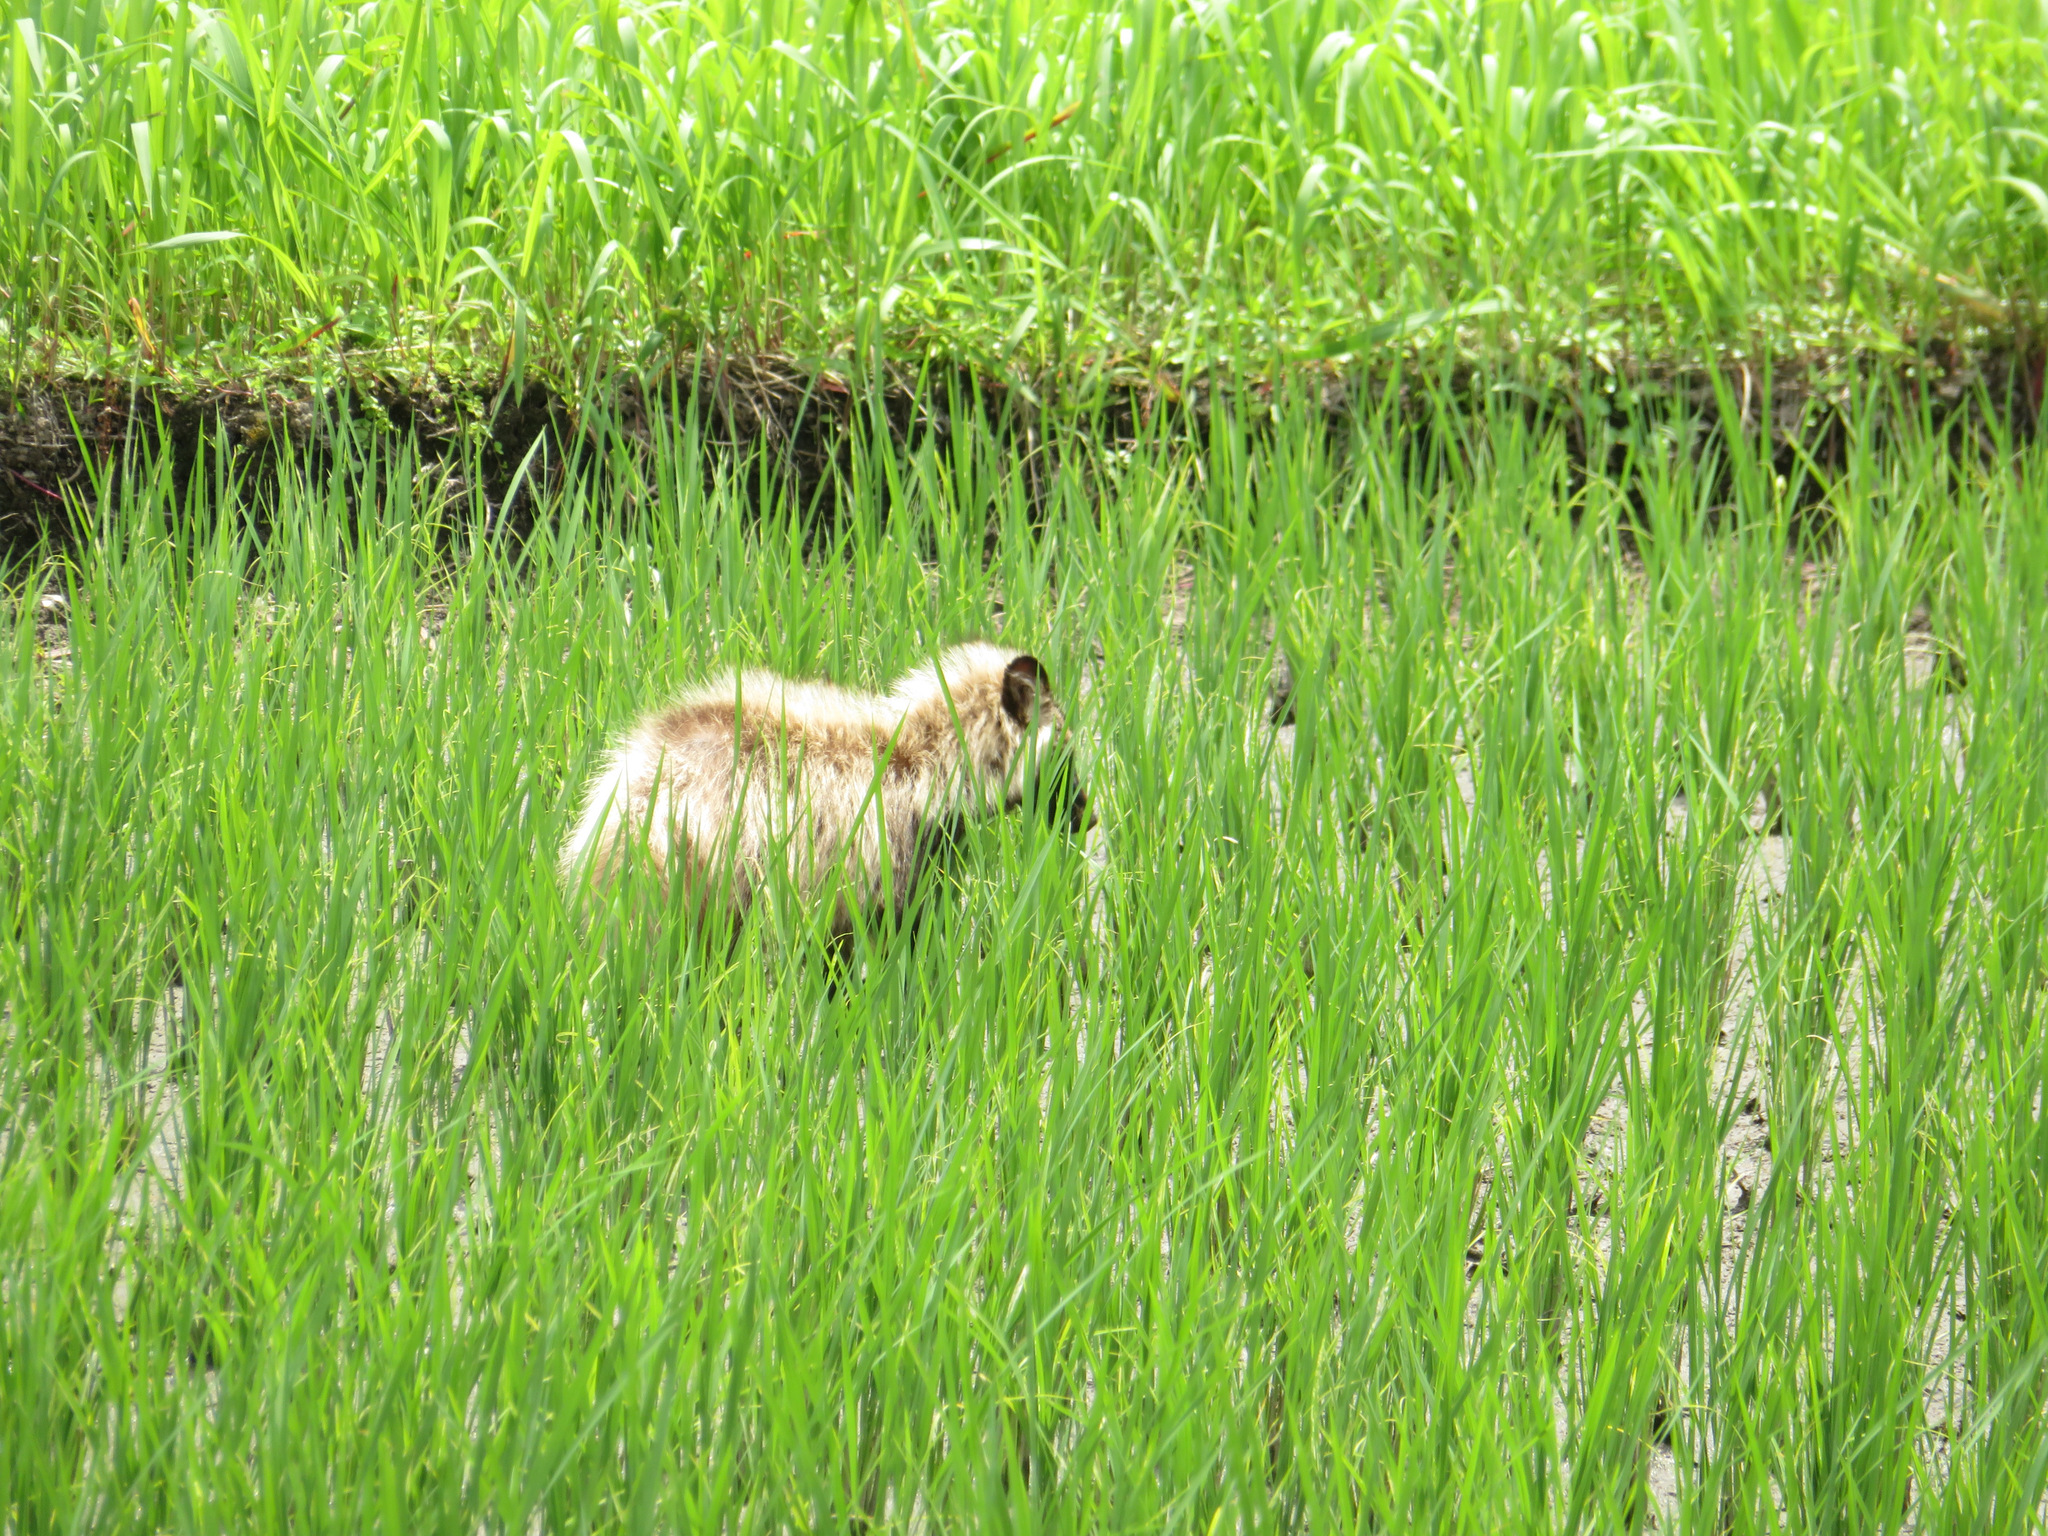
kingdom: Animalia
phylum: Chordata
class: Mammalia
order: Carnivora
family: Canidae
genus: Nyctereutes
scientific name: Nyctereutes
